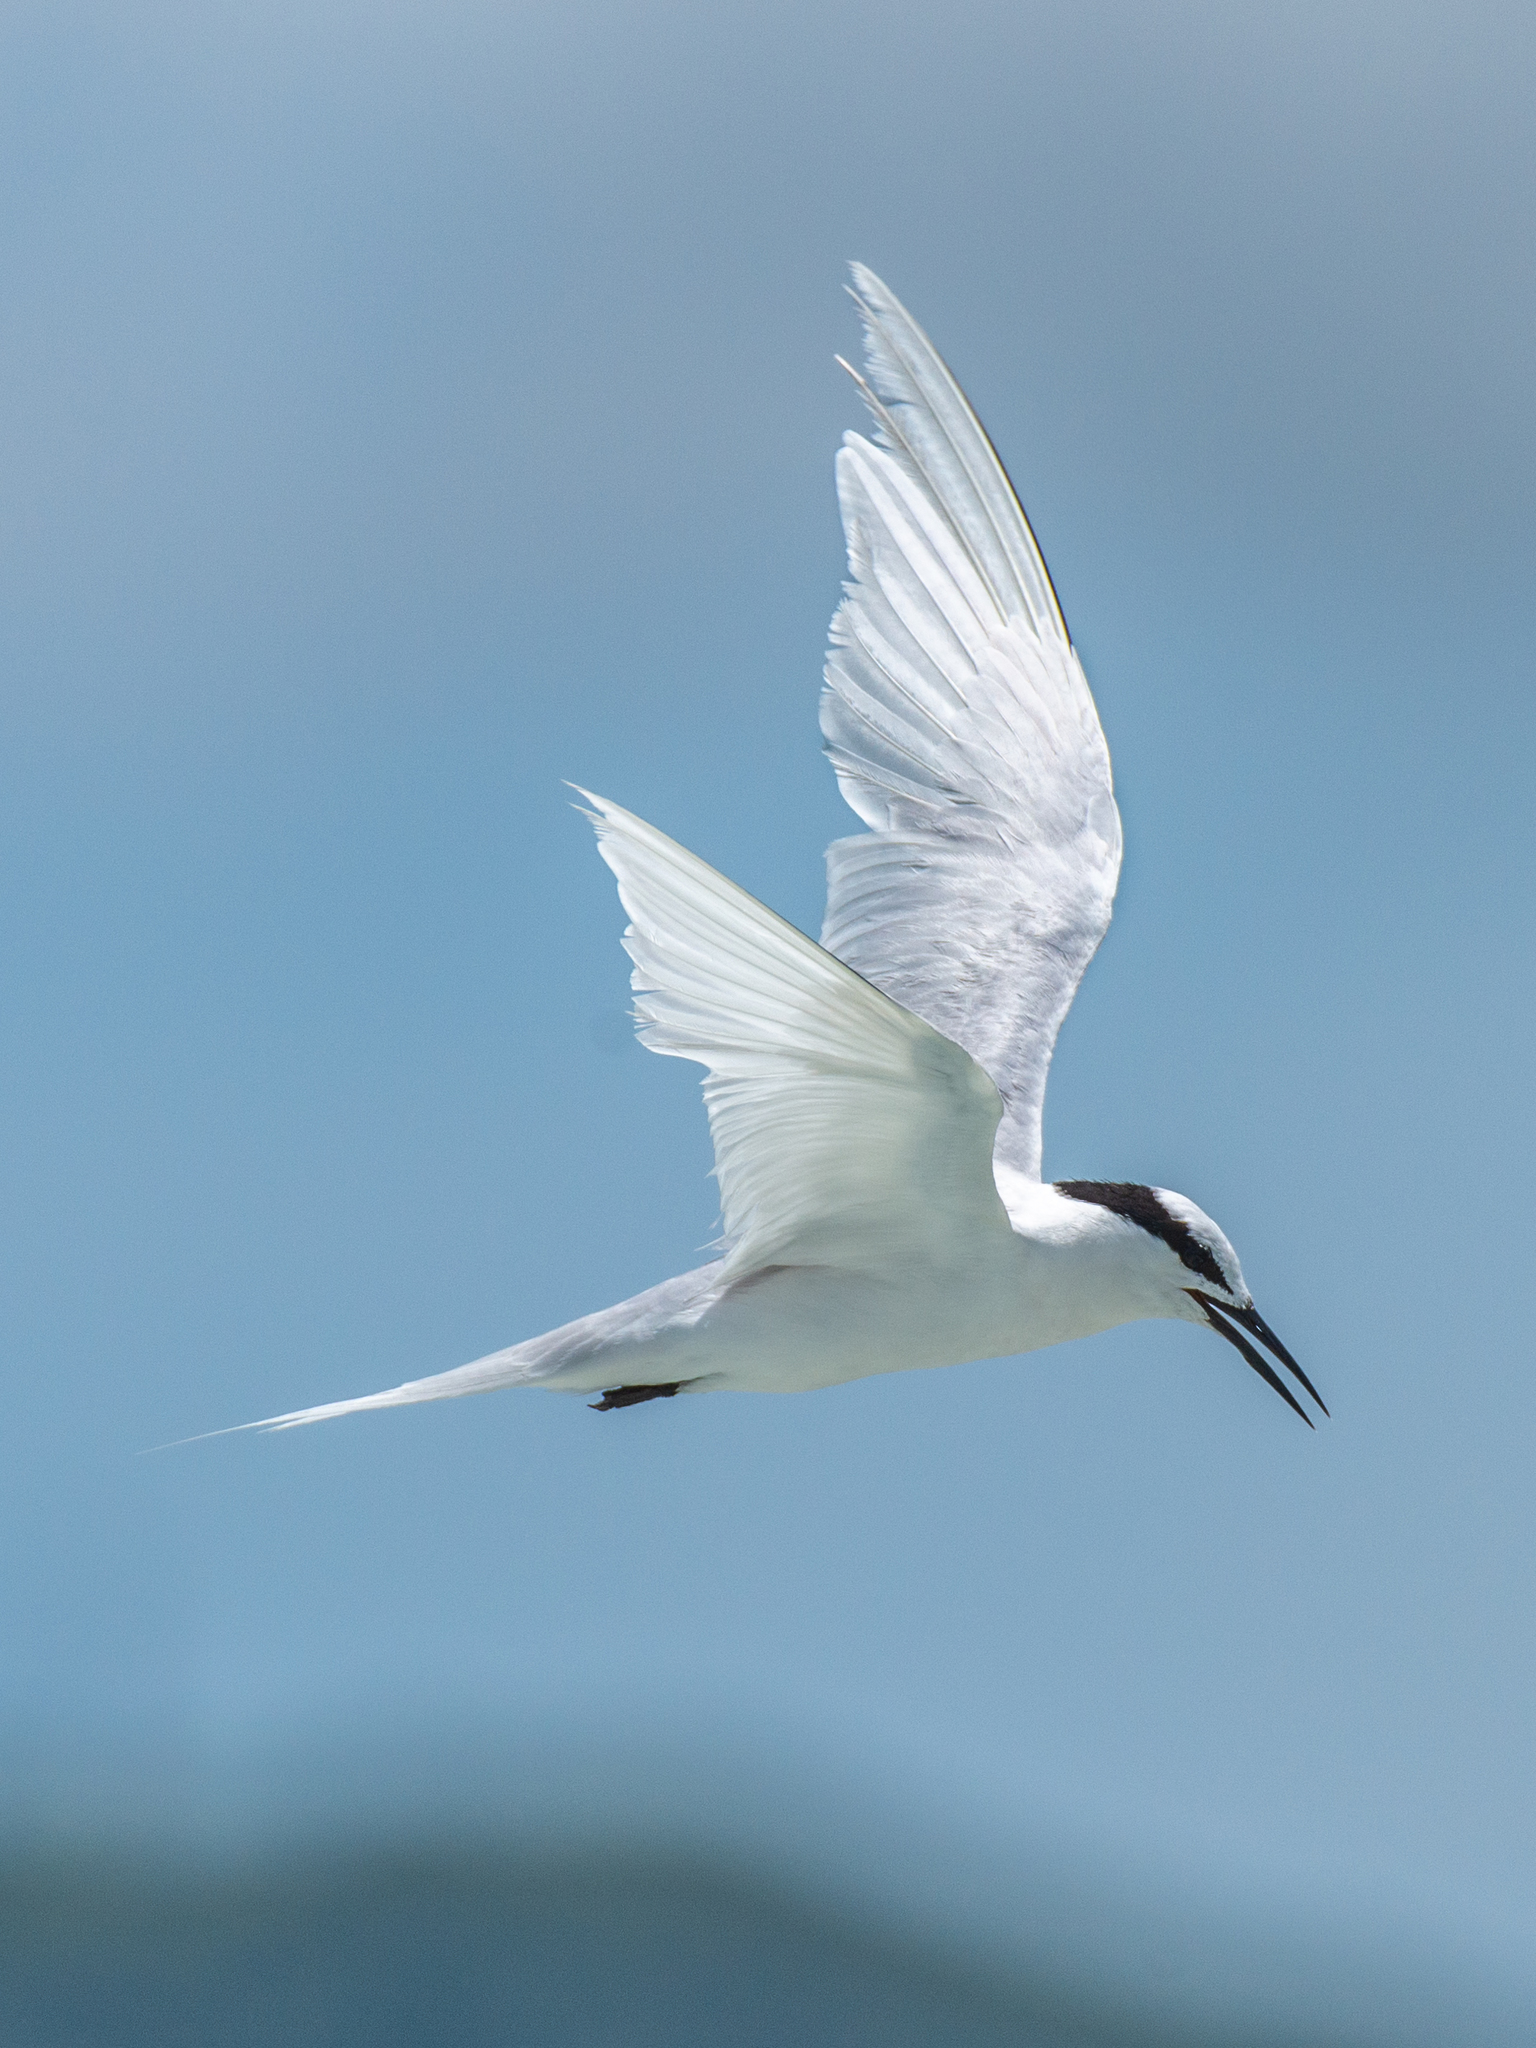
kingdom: Animalia
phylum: Chordata
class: Aves
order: Charadriiformes
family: Laridae
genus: Sterna
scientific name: Sterna sumatrana
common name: Black-naped tern
